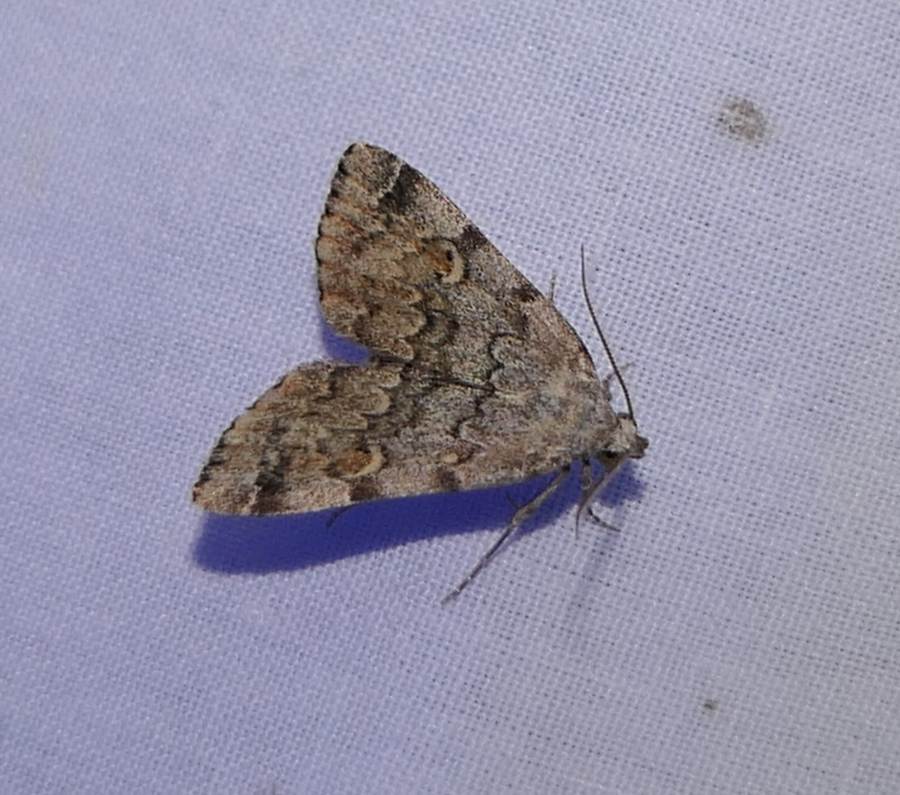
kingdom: Animalia
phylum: Arthropoda
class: Insecta
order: Lepidoptera
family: Erebidae
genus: Idia
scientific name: Idia americalis
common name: American idia moth
